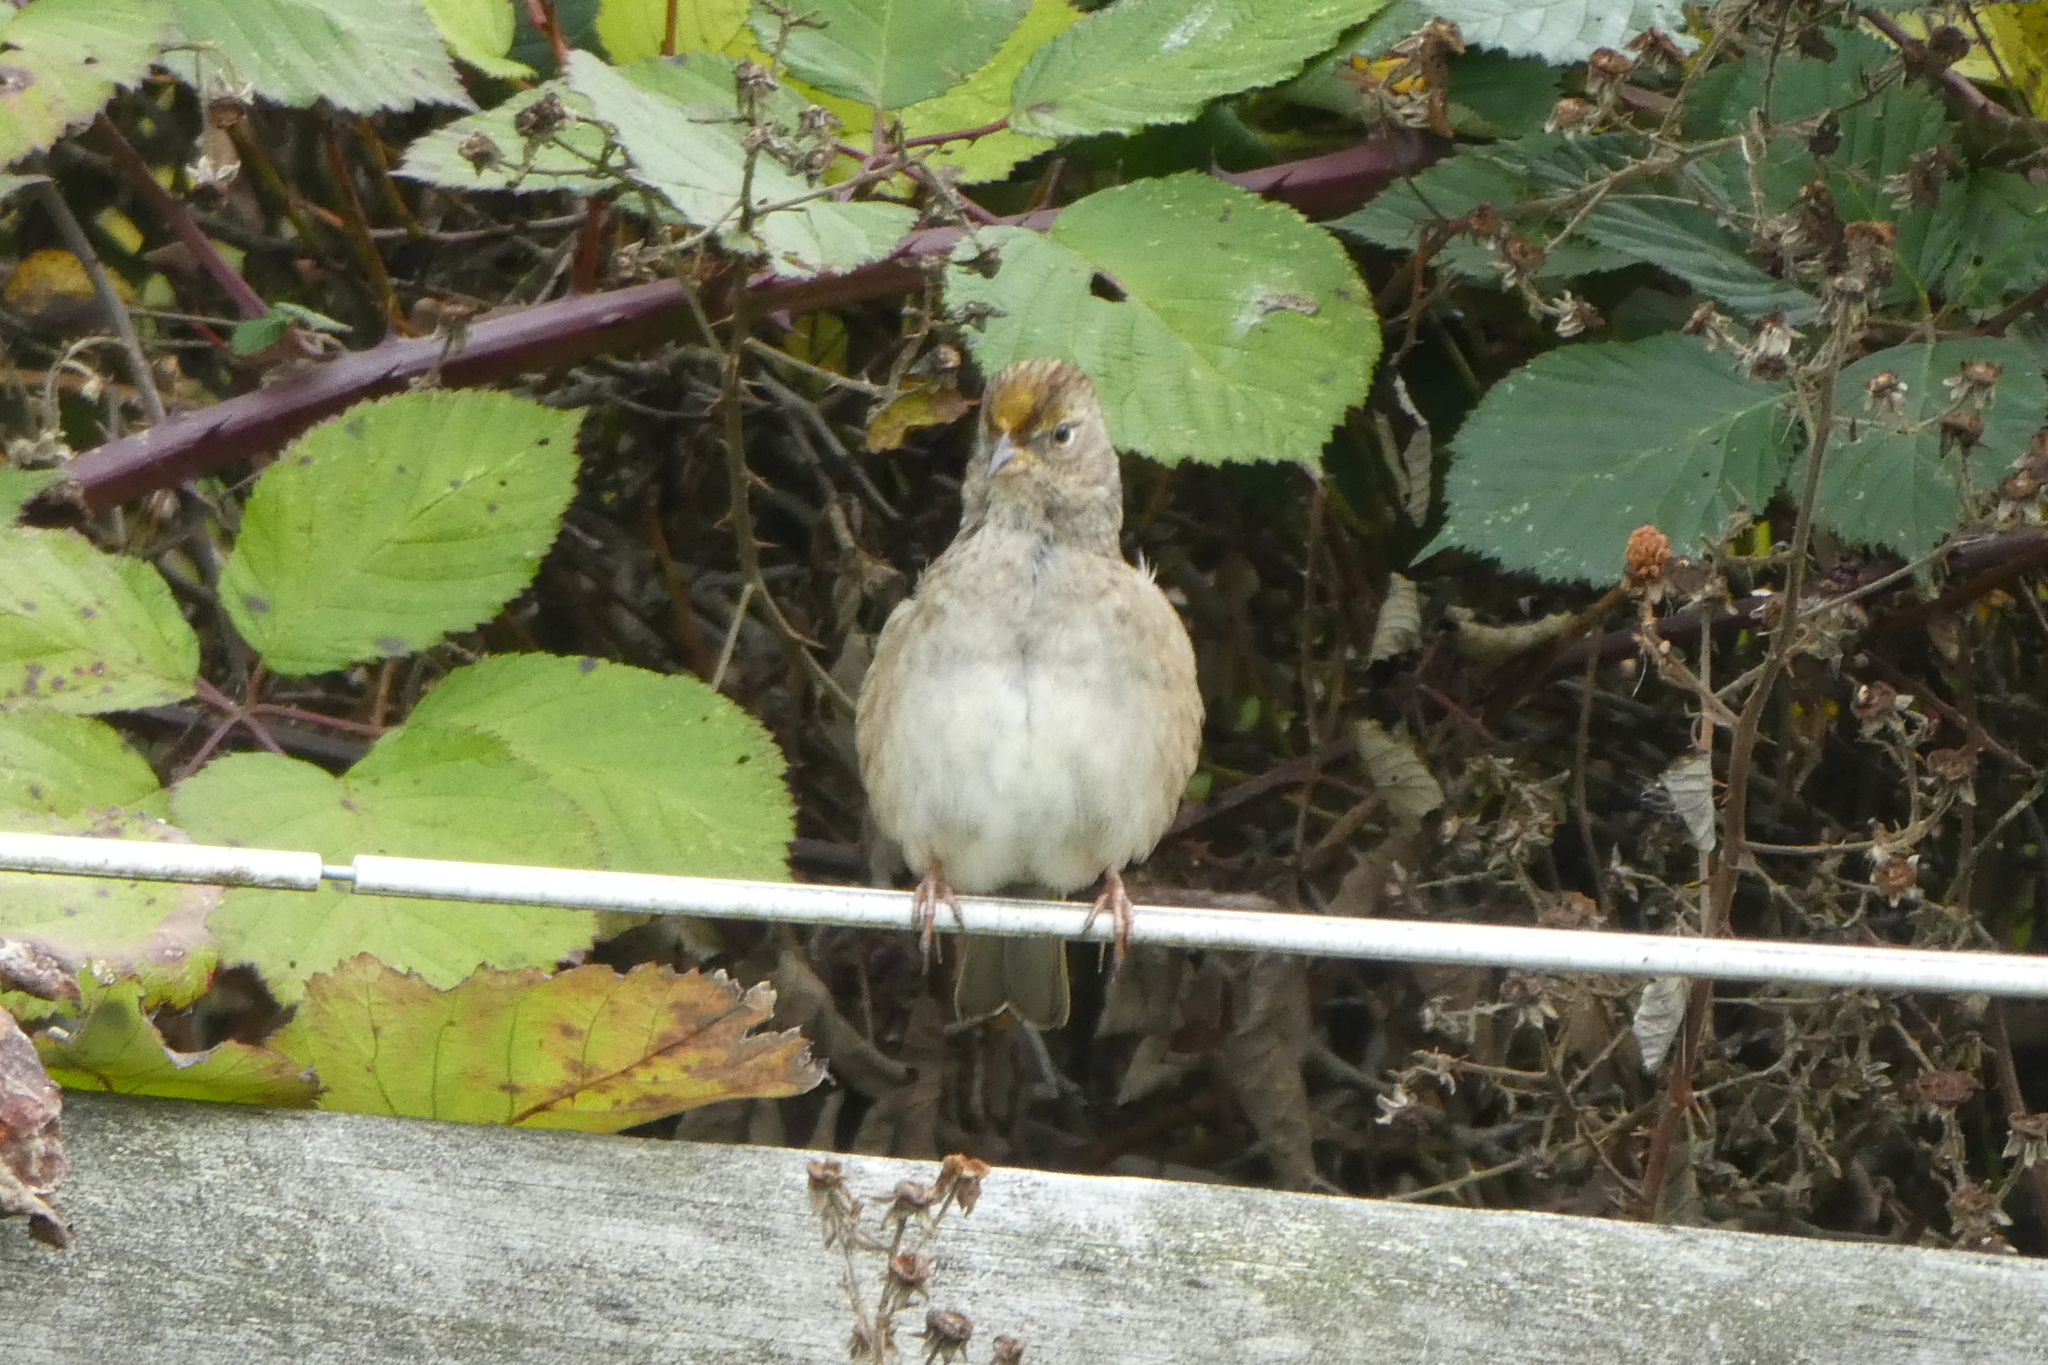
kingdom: Animalia
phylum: Chordata
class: Aves
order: Passeriformes
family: Passerellidae
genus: Zonotrichia
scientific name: Zonotrichia atricapilla
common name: Golden-crowned sparrow
